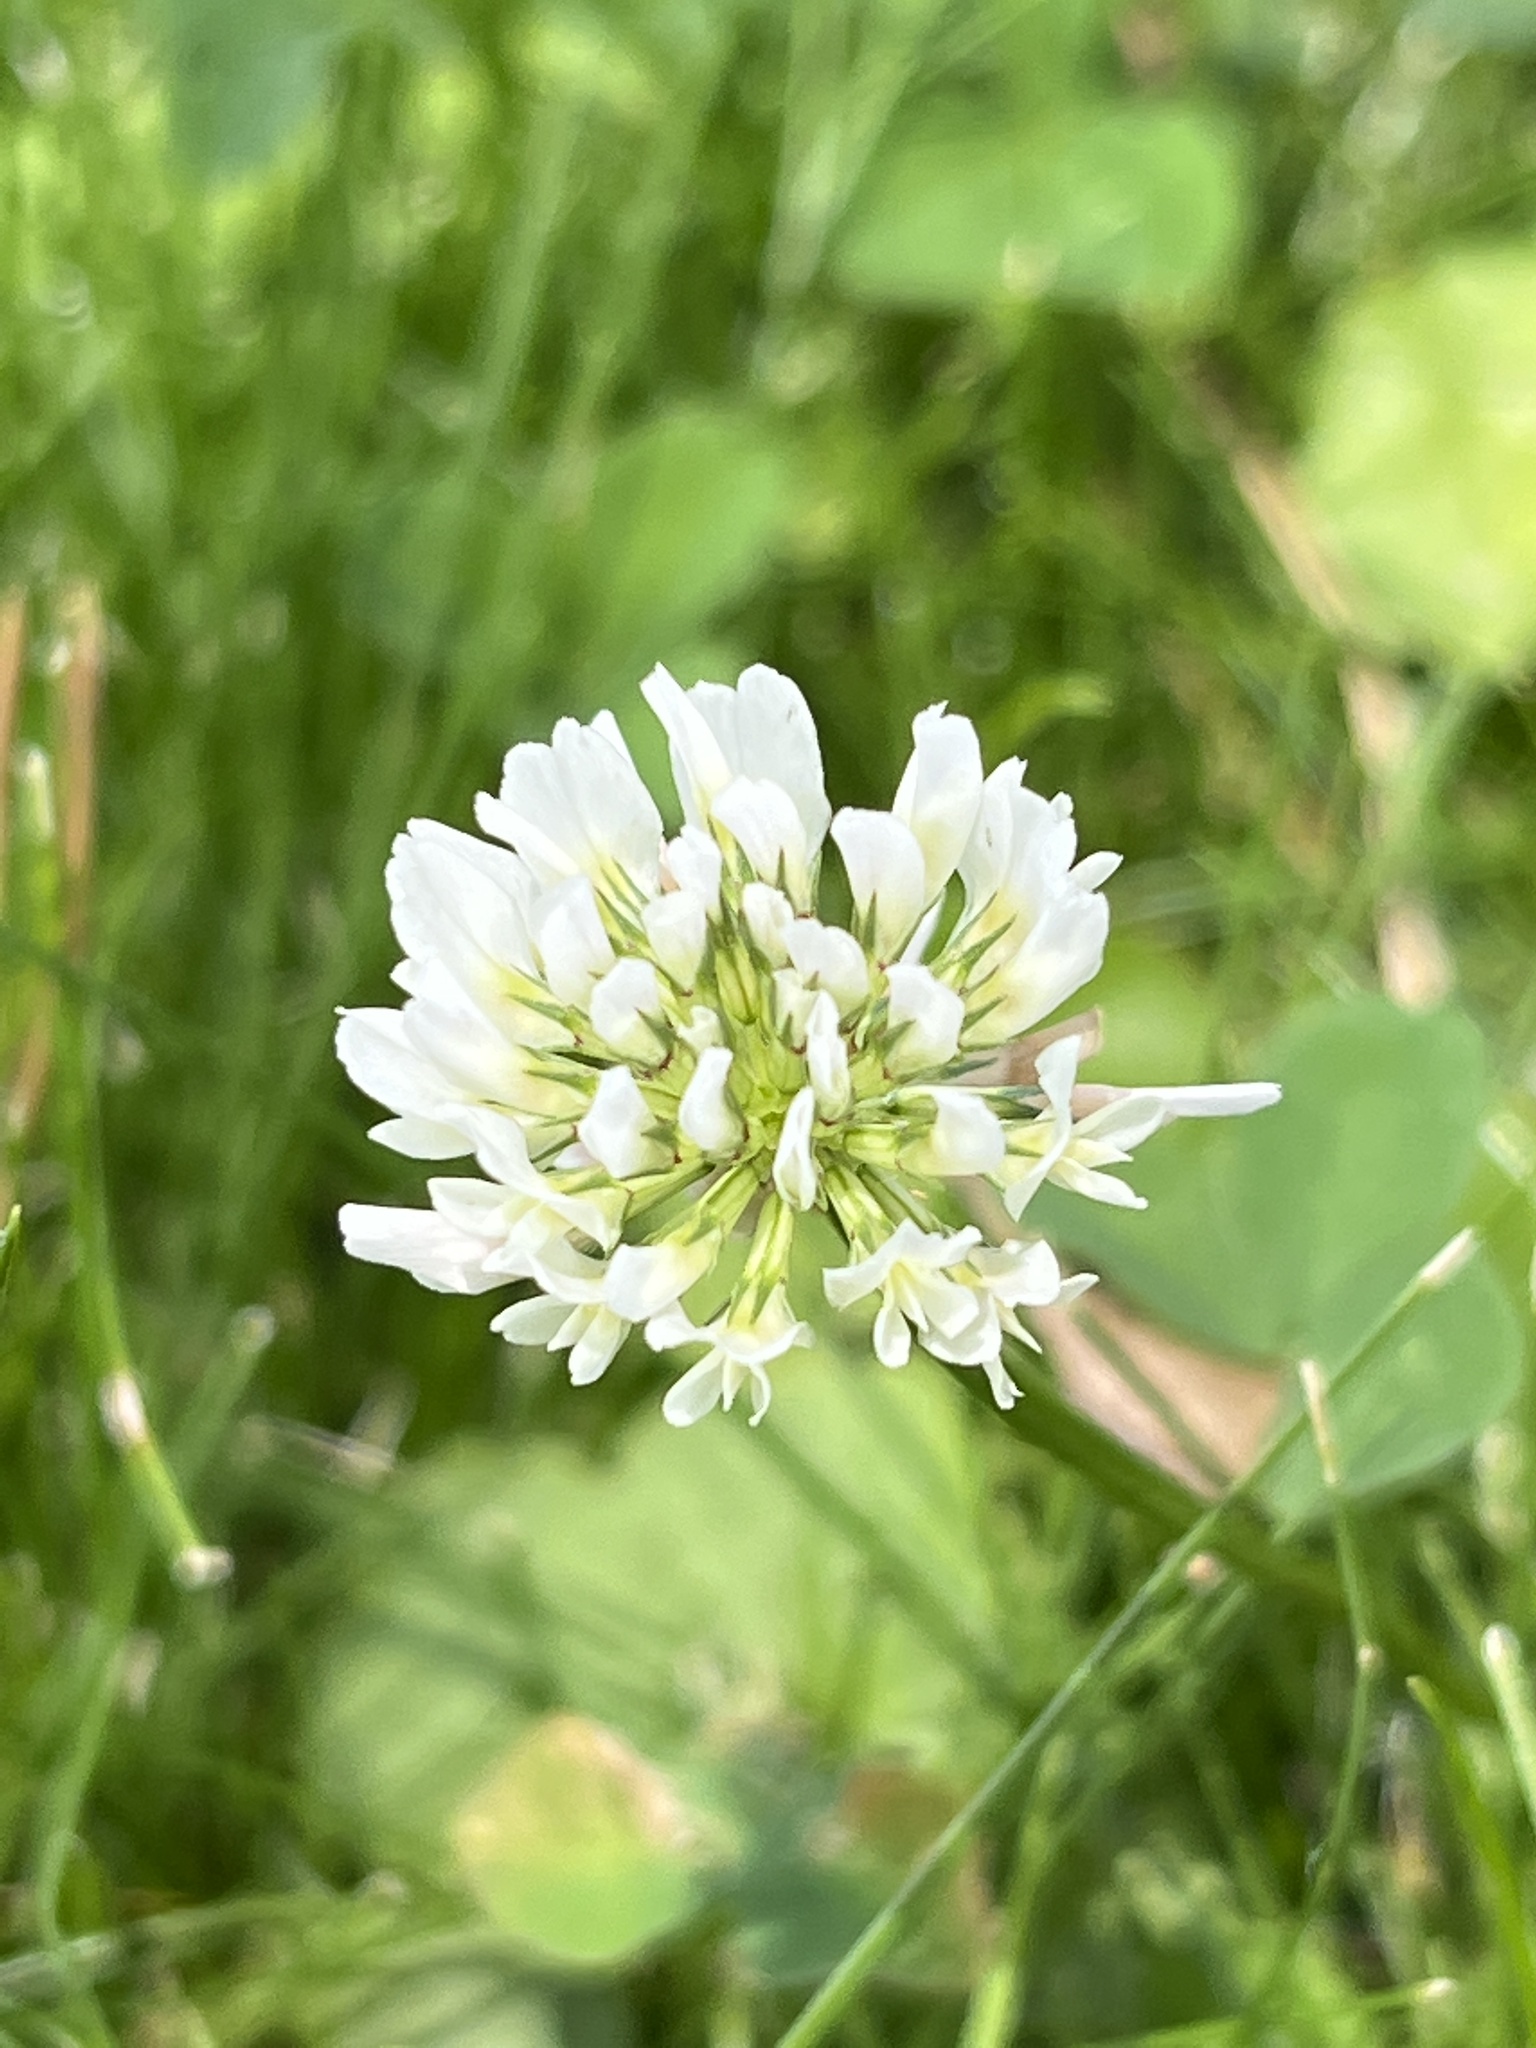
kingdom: Plantae
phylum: Tracheophyta
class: Magnoliopsida
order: Fabales
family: Fabaceae
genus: Trifolium
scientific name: Trifolium repens
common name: White clover
